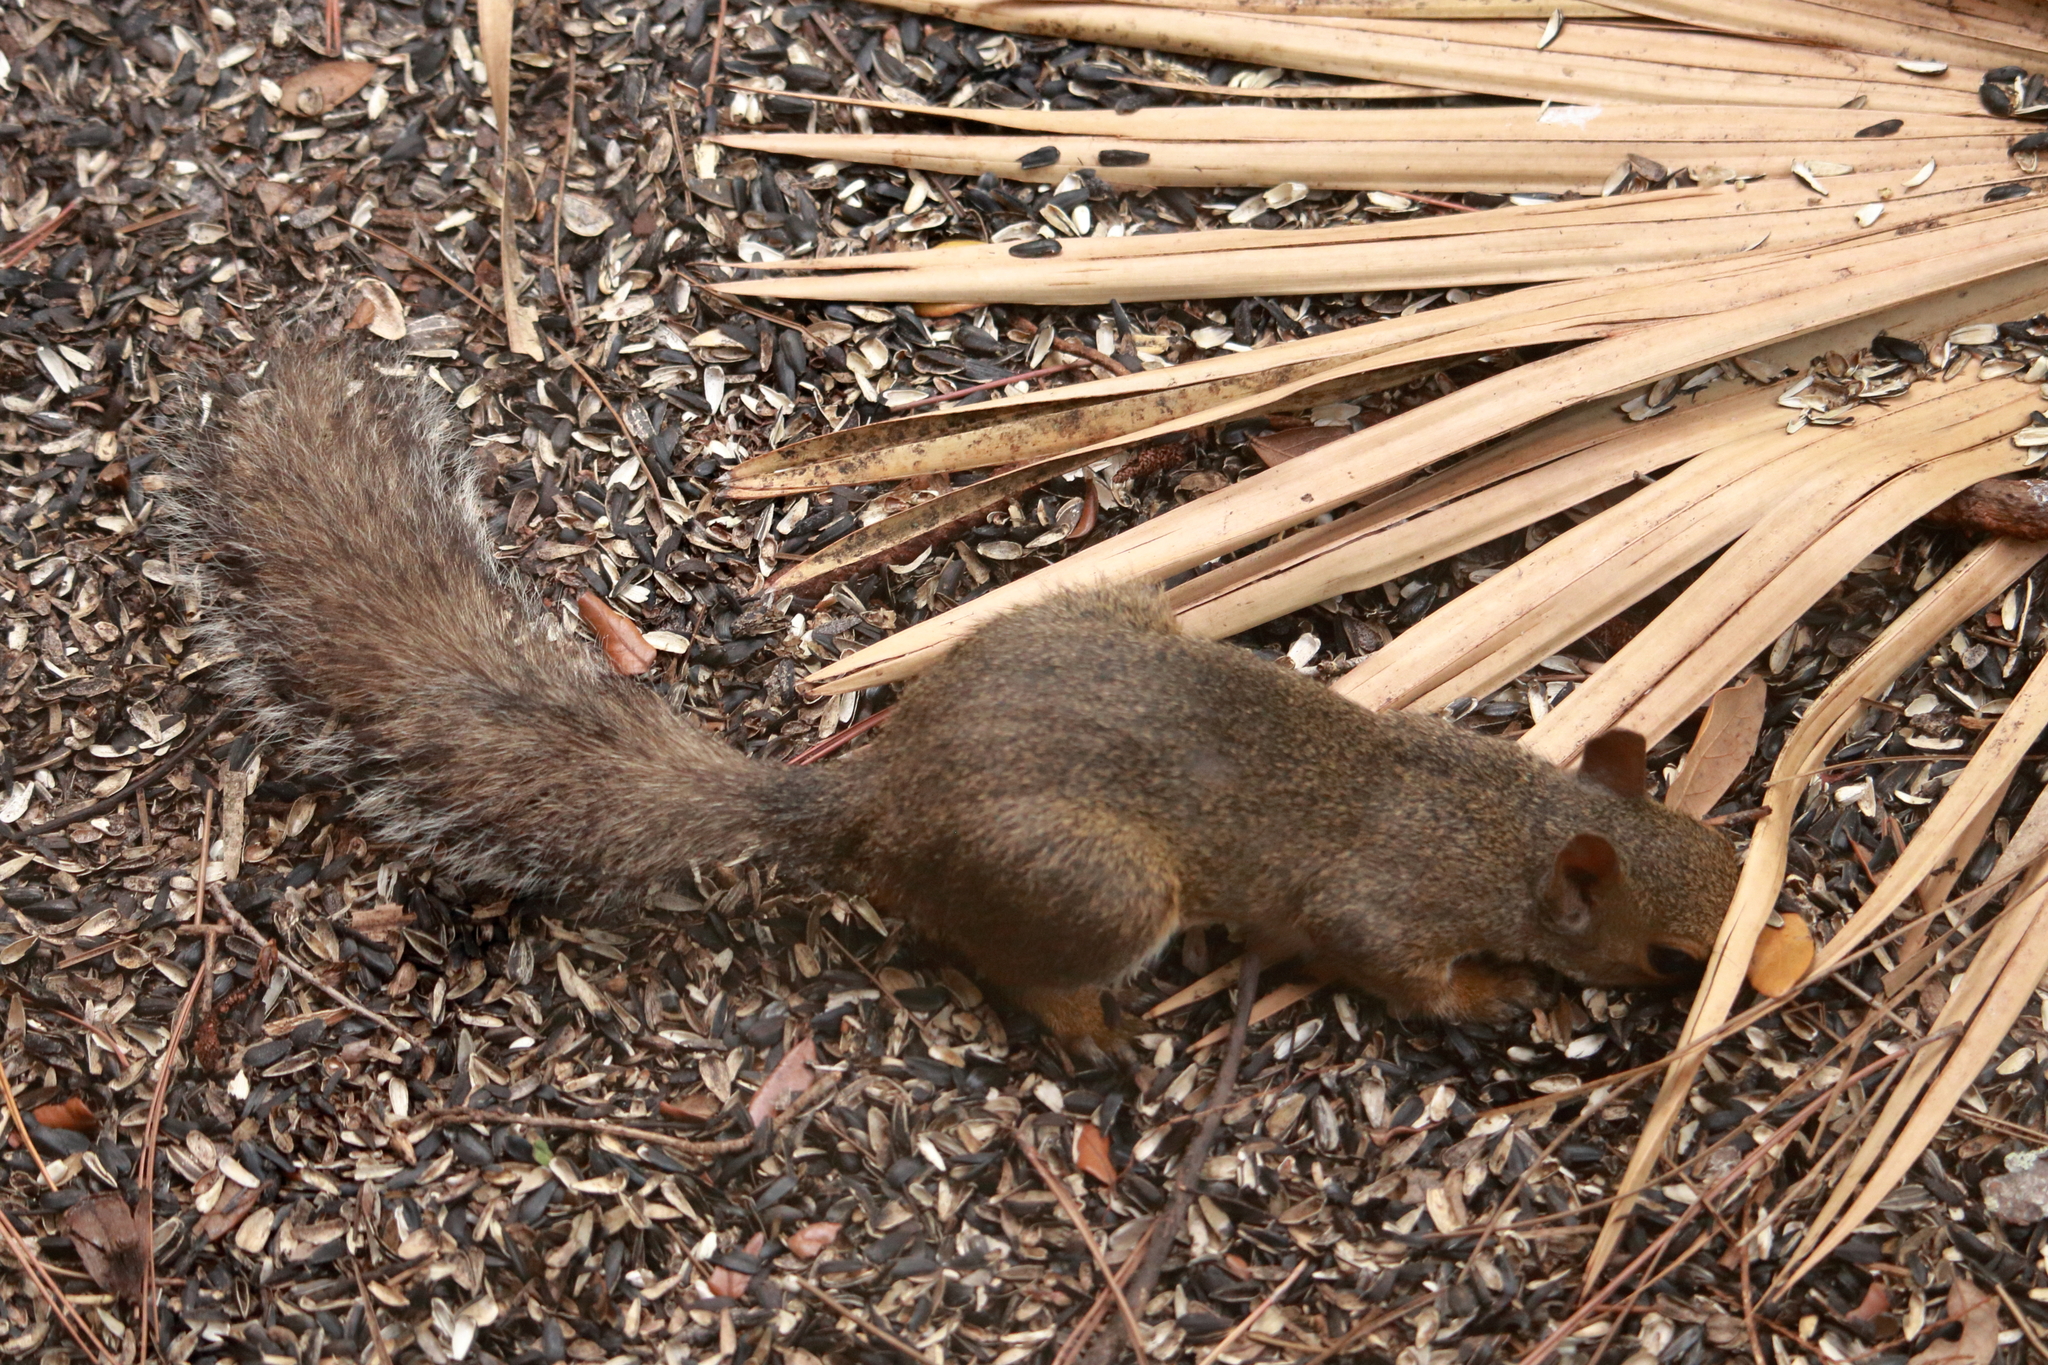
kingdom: Animalia
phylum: Chordata
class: Mammalia
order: Rodentia
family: Sciuridae
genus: Sciurus
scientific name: Sciurus carolinensis
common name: Eastern gray squirrel
